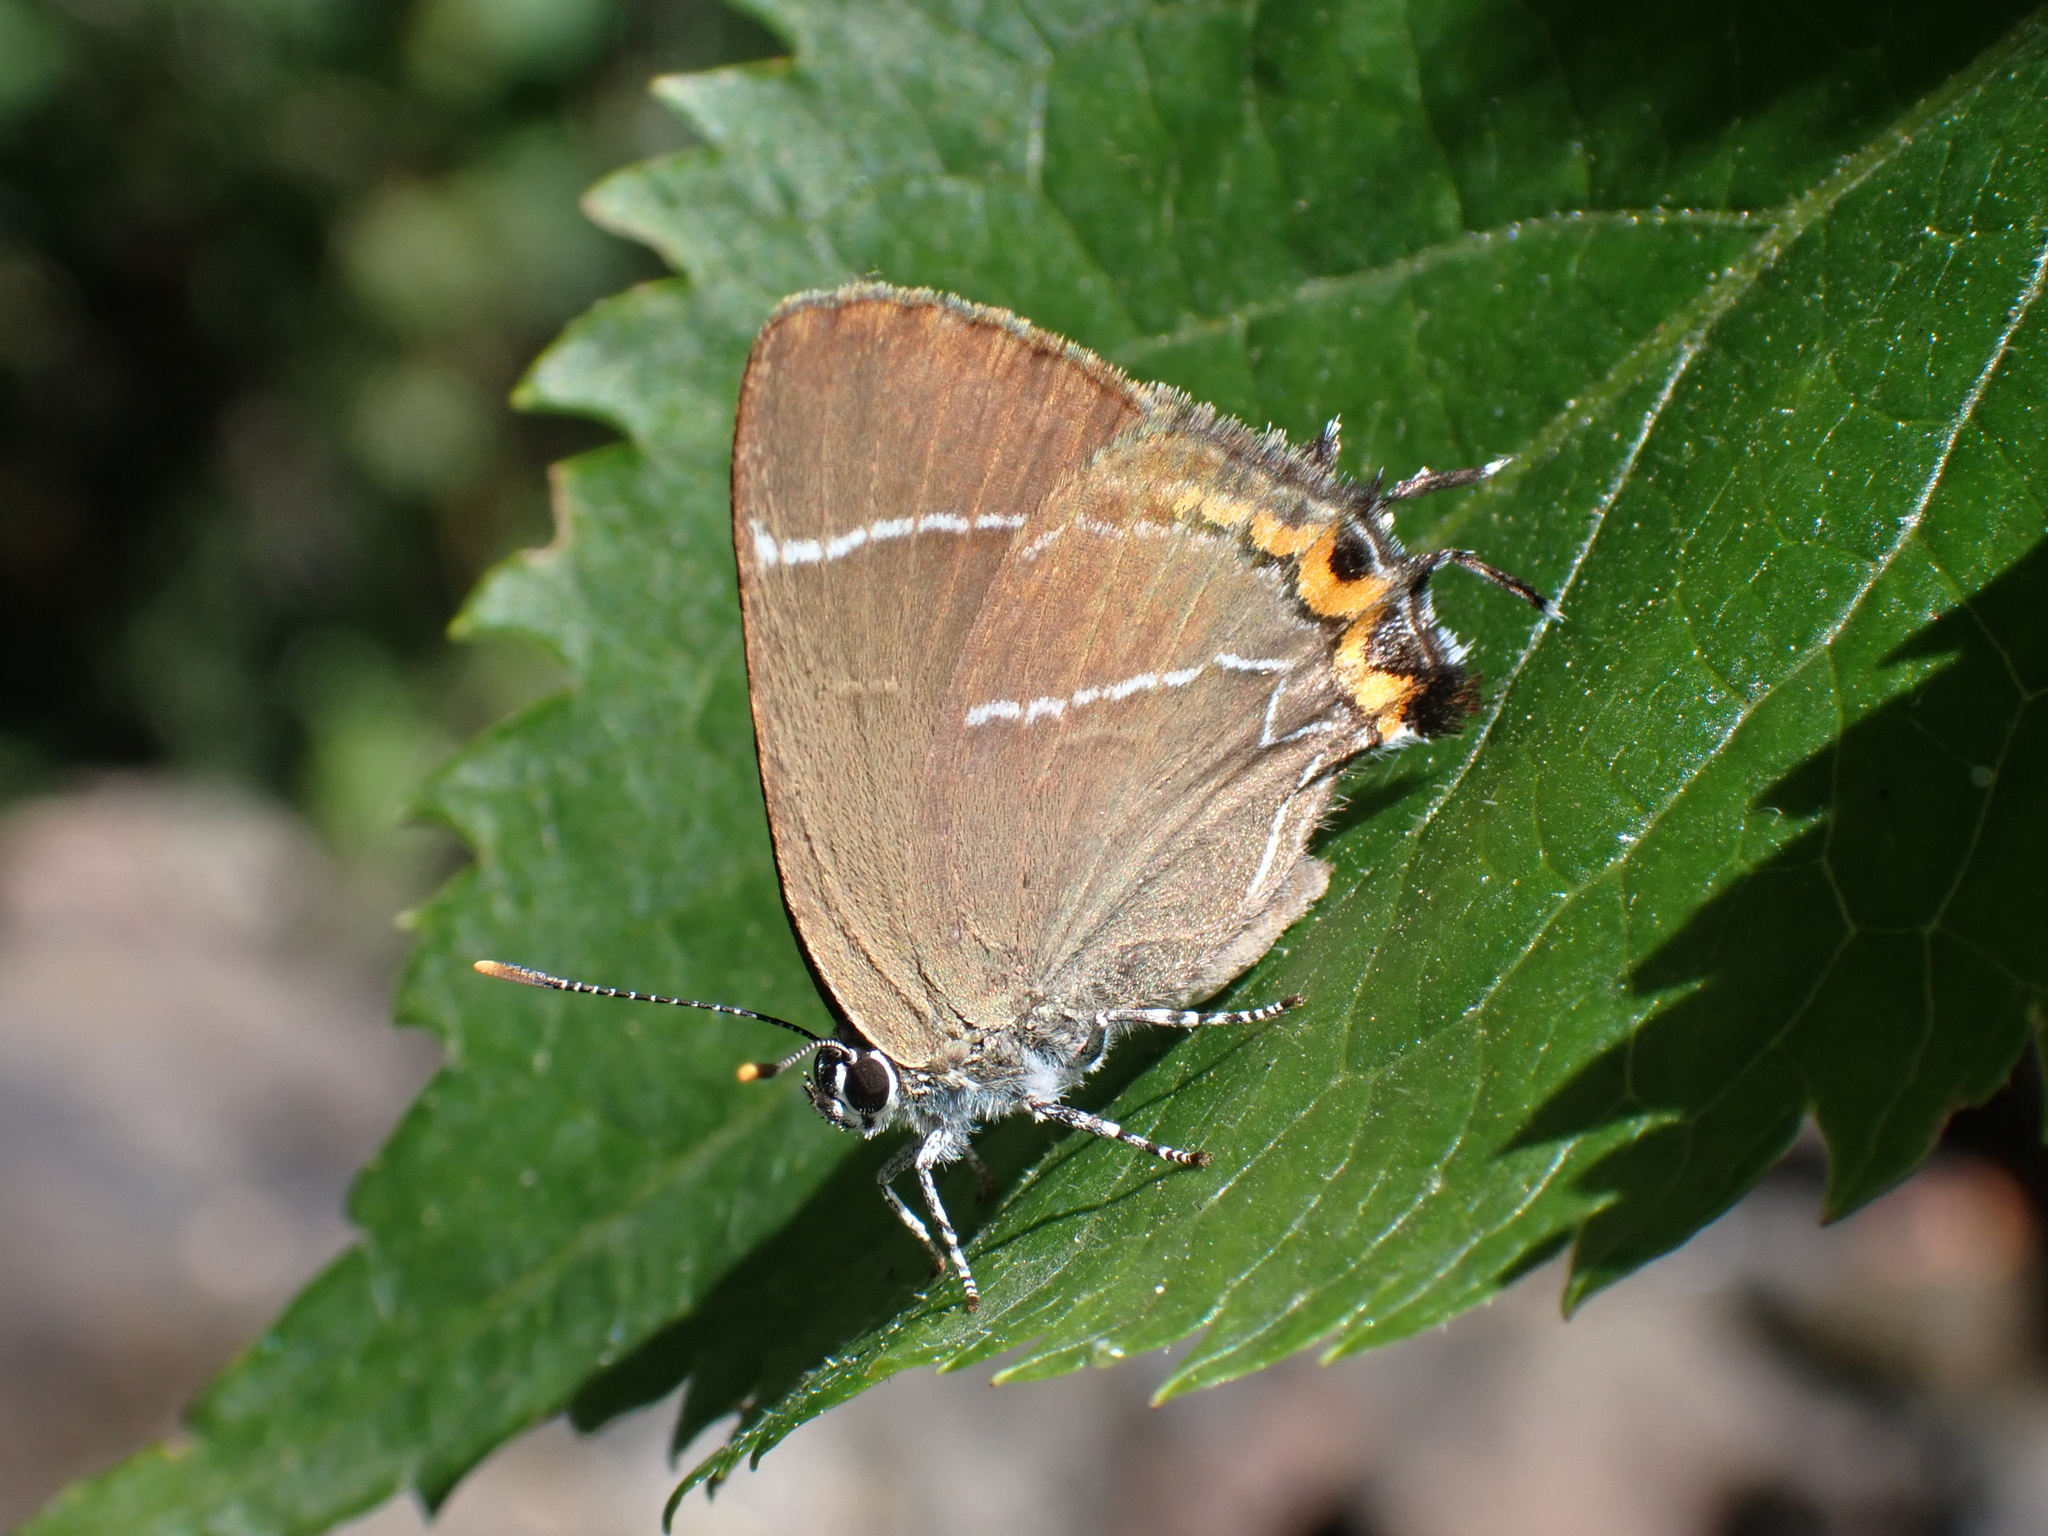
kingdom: Animalia
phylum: Arthropoda
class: Insecta
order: Lepidoptera
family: Lycaenidae
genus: Satyrium
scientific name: Satyrium w-album
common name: White-letter hairstreak
